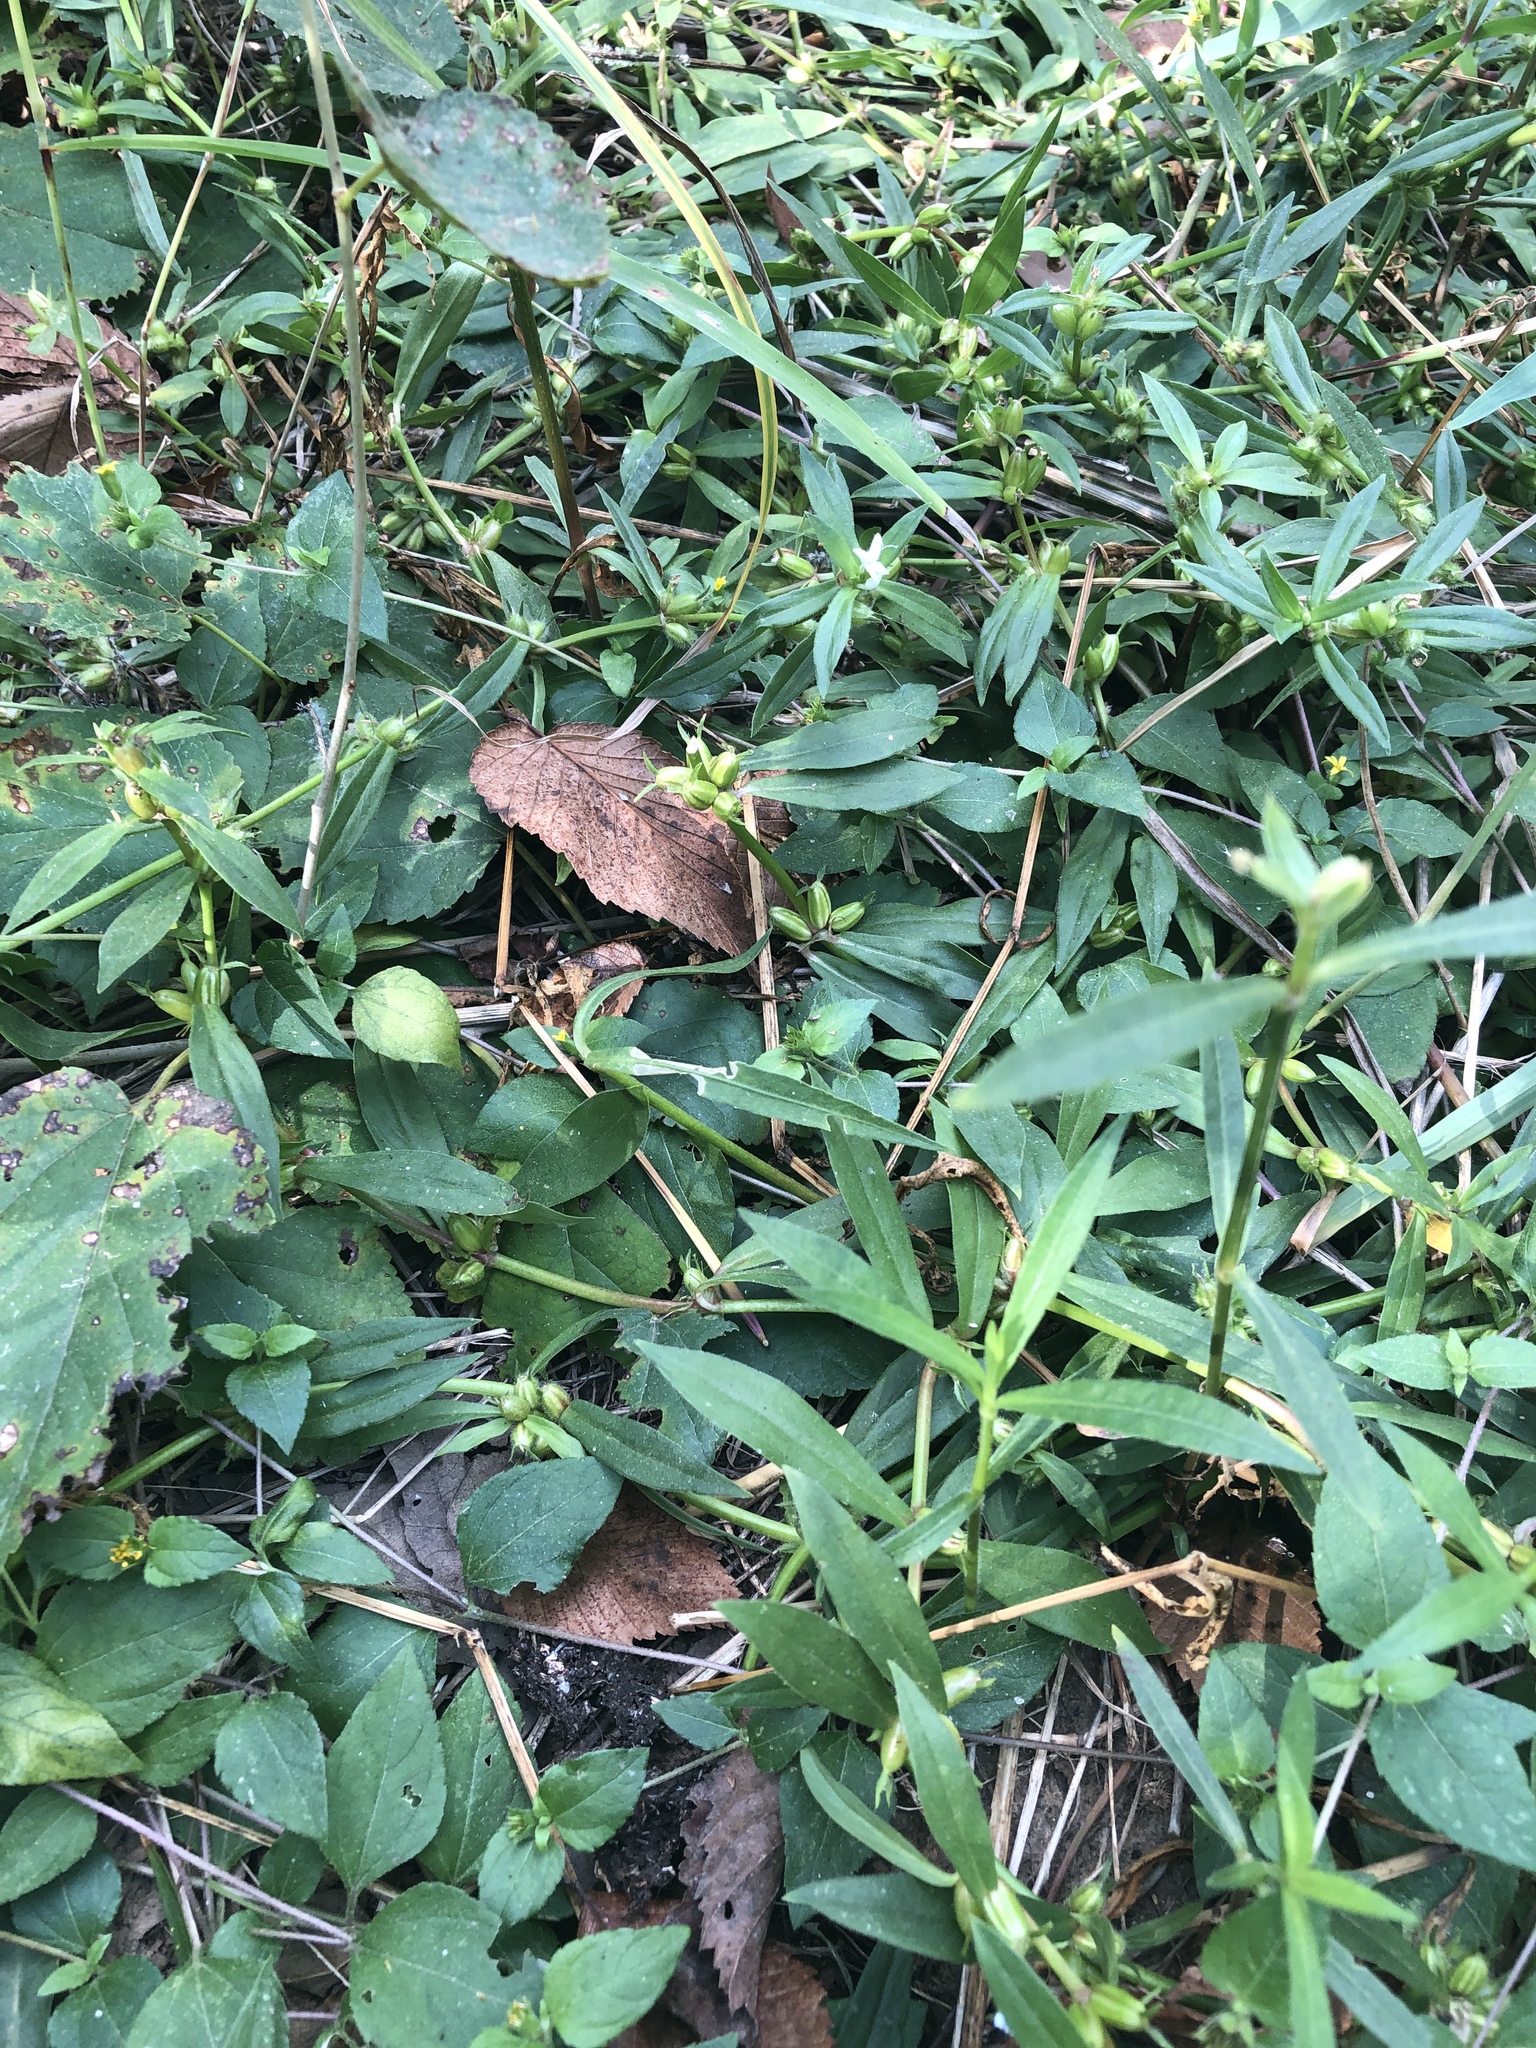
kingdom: Plantae
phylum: Tracheophyta
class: Magnoliopsida
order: Gentianales
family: Rubiaceae
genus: Diodia
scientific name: Diodia virginiana
